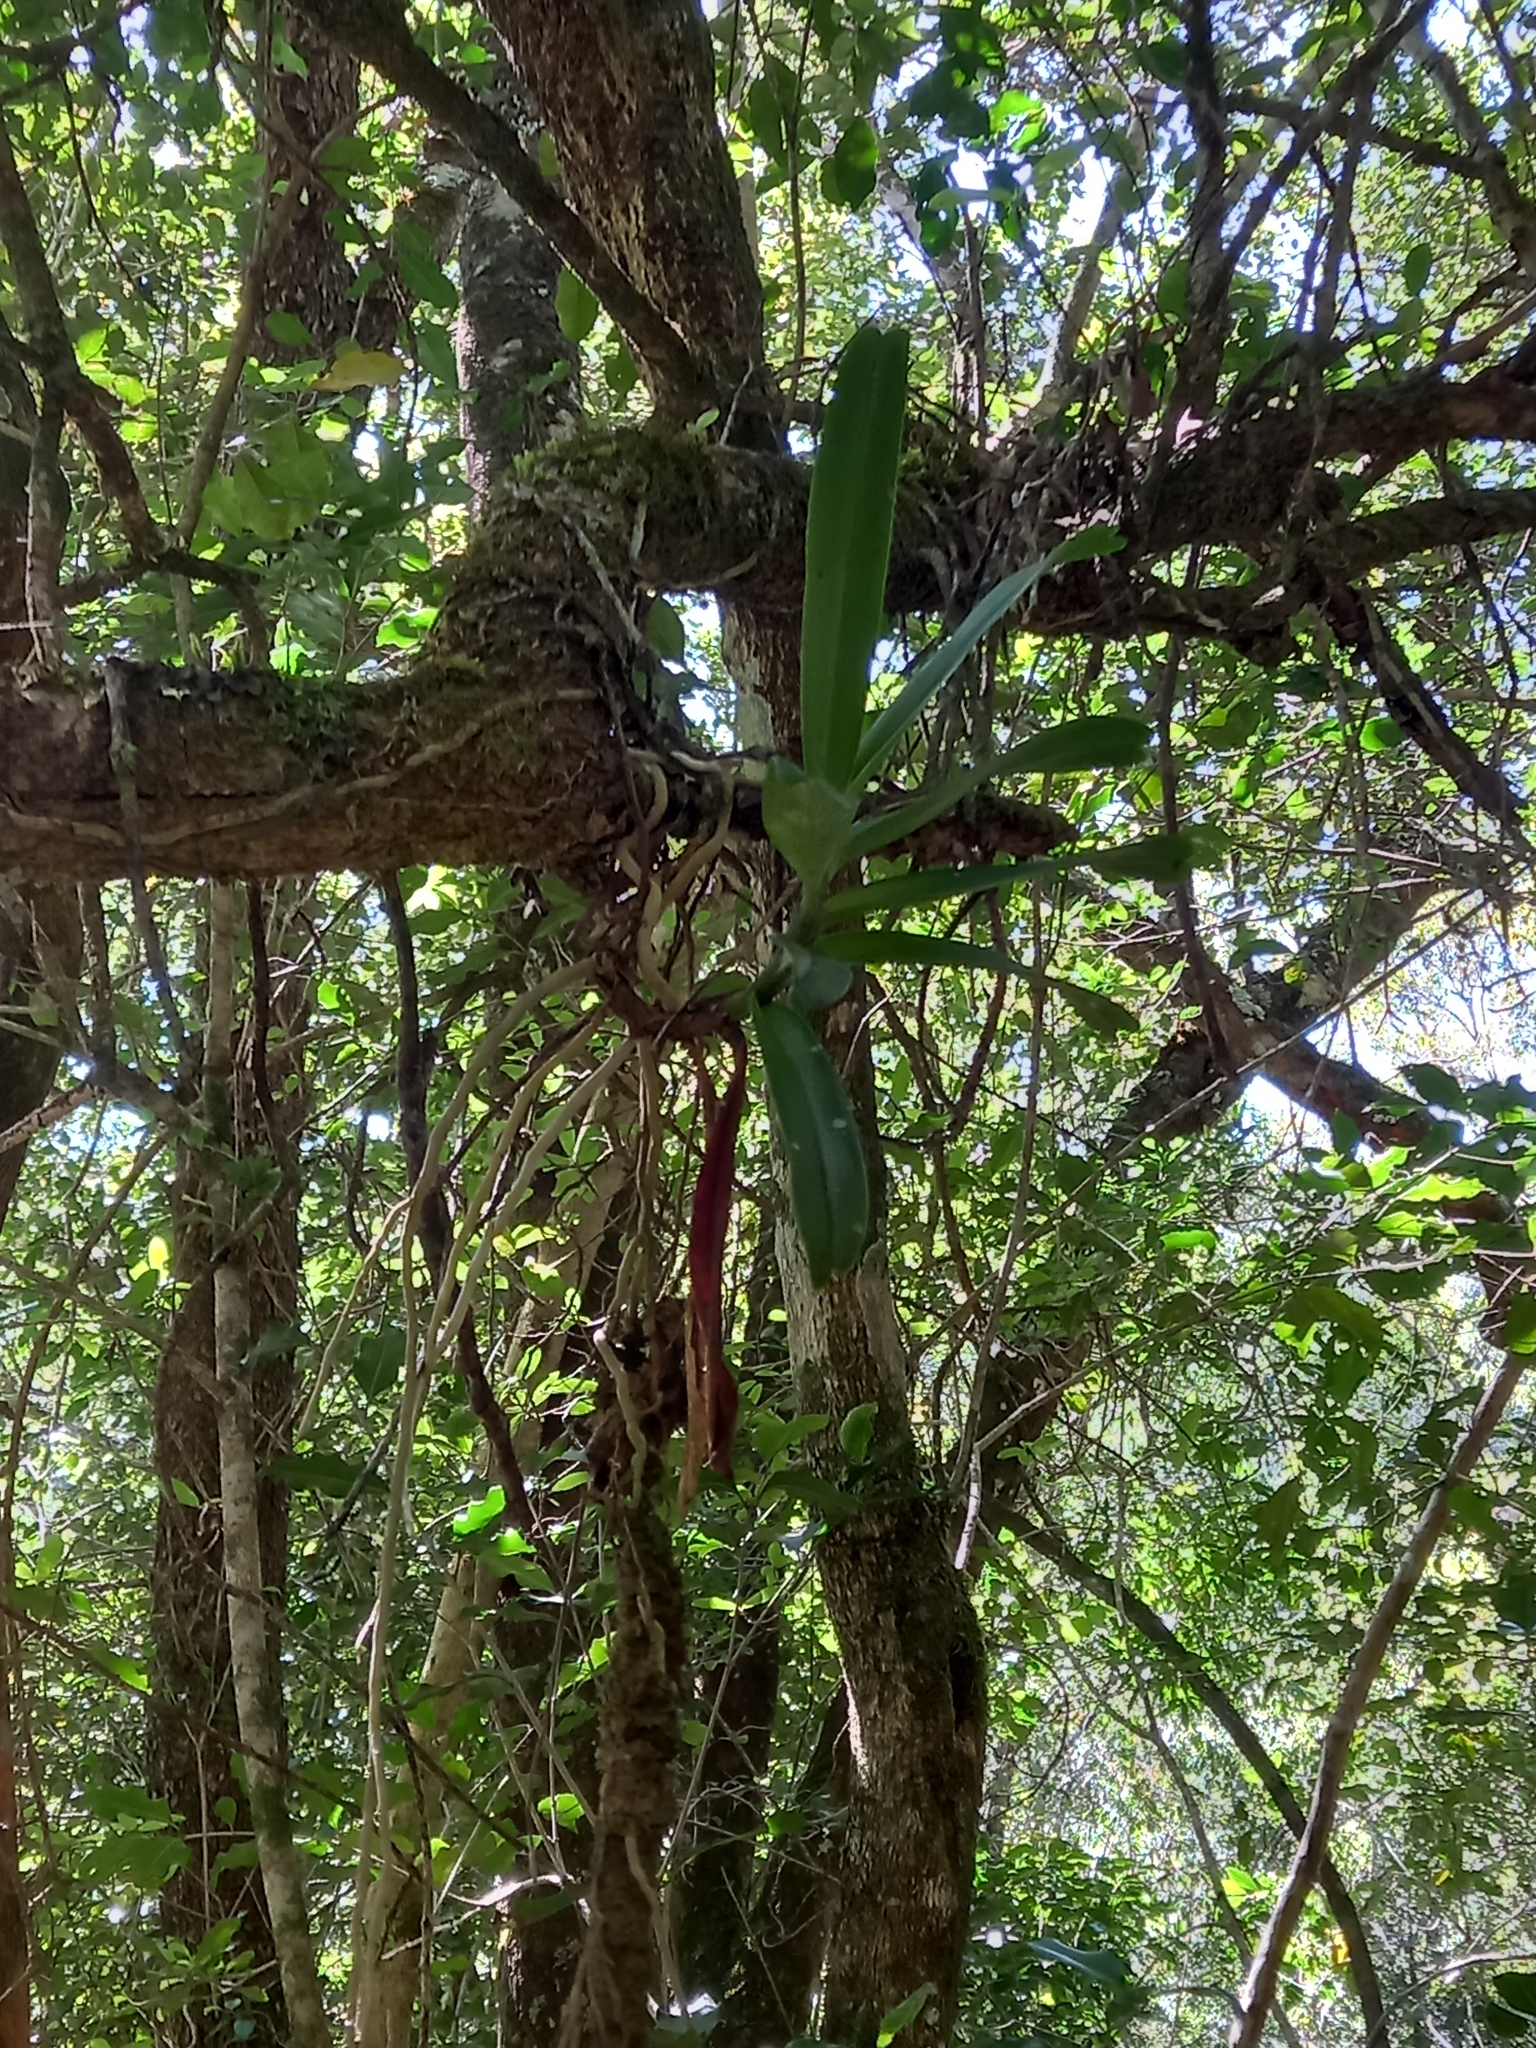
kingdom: Plantae
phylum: Tracheophyta
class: Liliopsida
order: Asparagales
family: Orchidaceae
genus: Cyrtorchis
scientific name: Cyrtorchis arcuata
